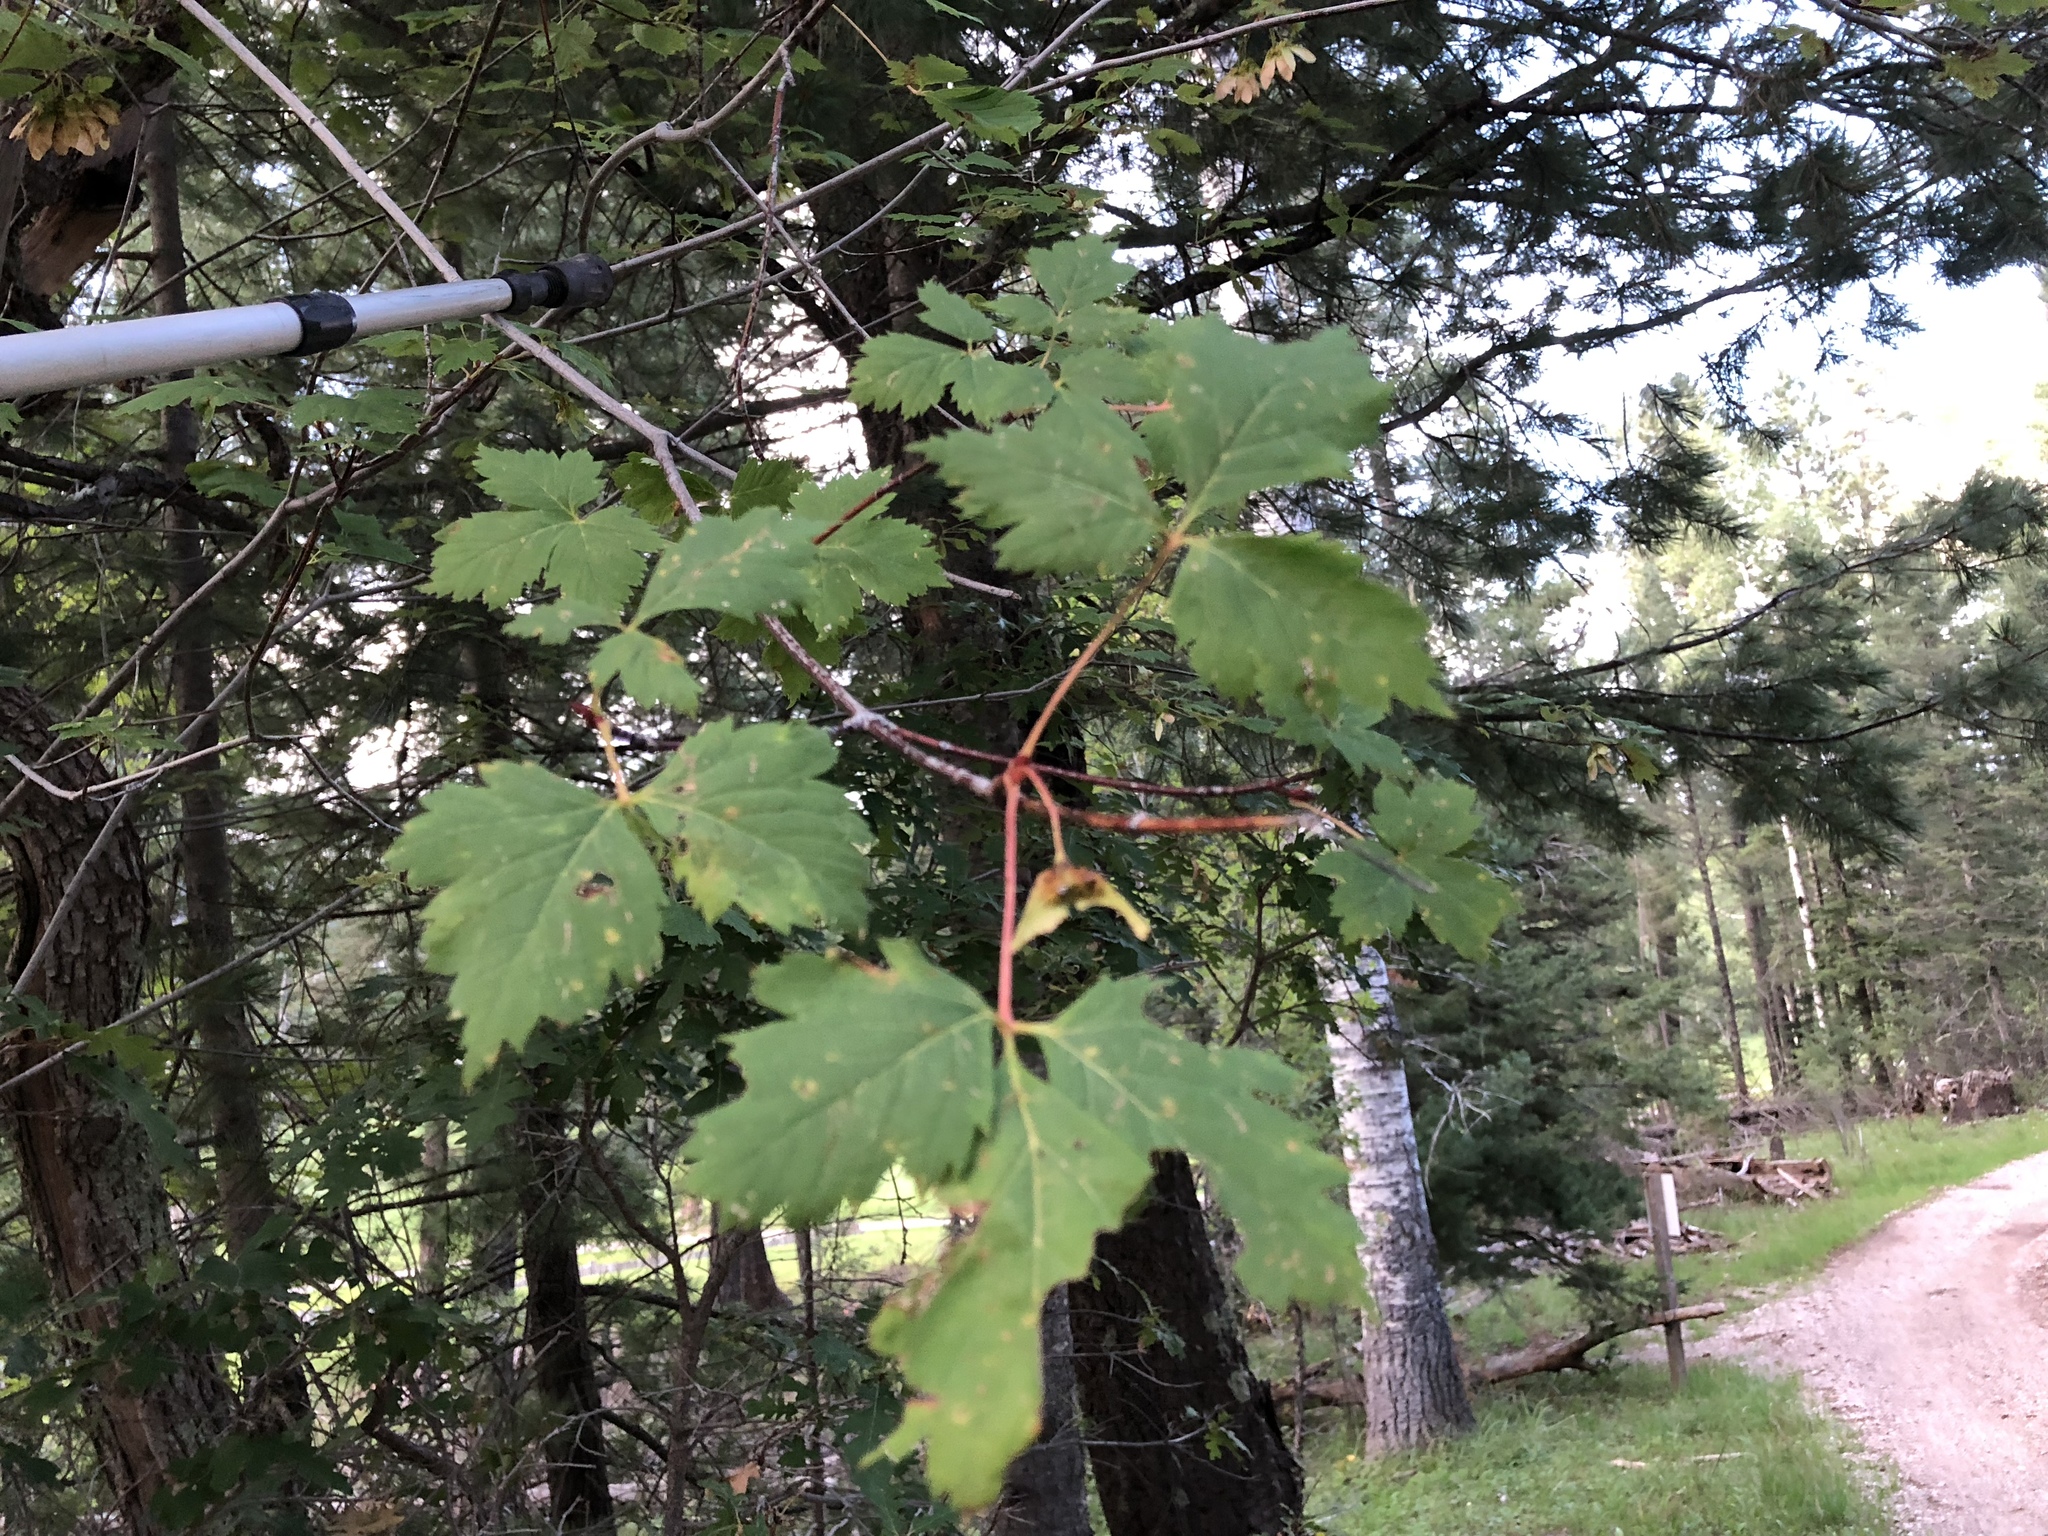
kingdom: Plantae
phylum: Tracheophyta
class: Magnoliopsida
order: Sapindales
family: Sapindaceae
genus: Acer
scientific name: Acer glabrum
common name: Rocky mountain maple
